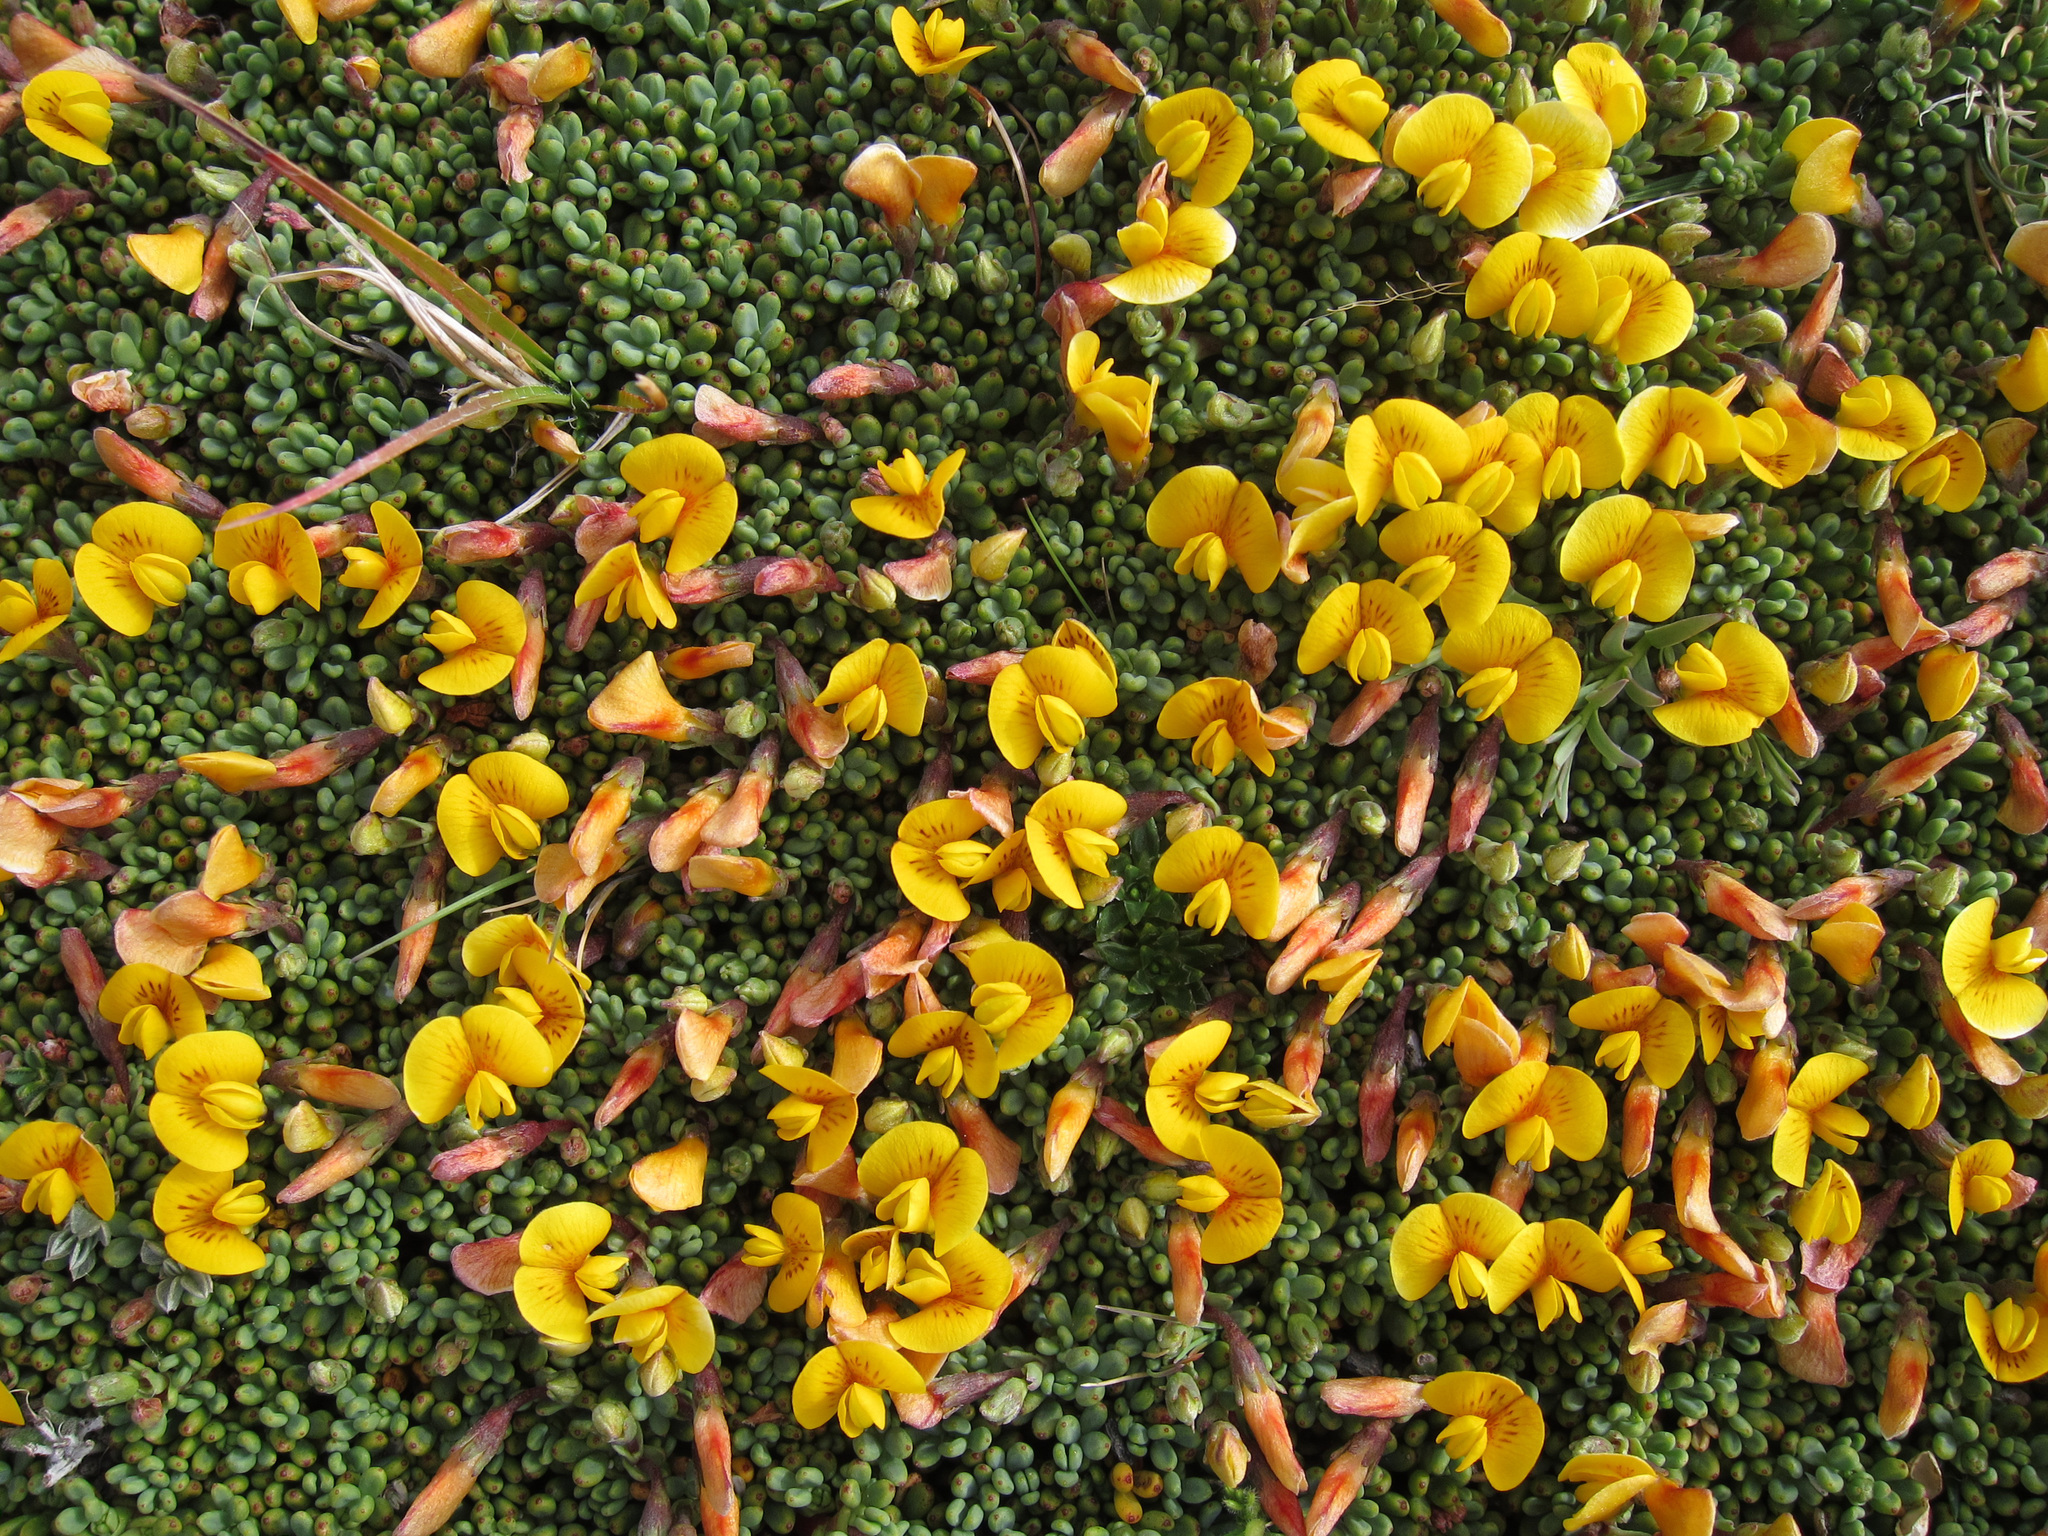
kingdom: Plantae
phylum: Tracheophyta
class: Magnoliopsida
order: Fabales
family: Fabaceae
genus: Adesmia
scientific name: Adesmia salicornioides
